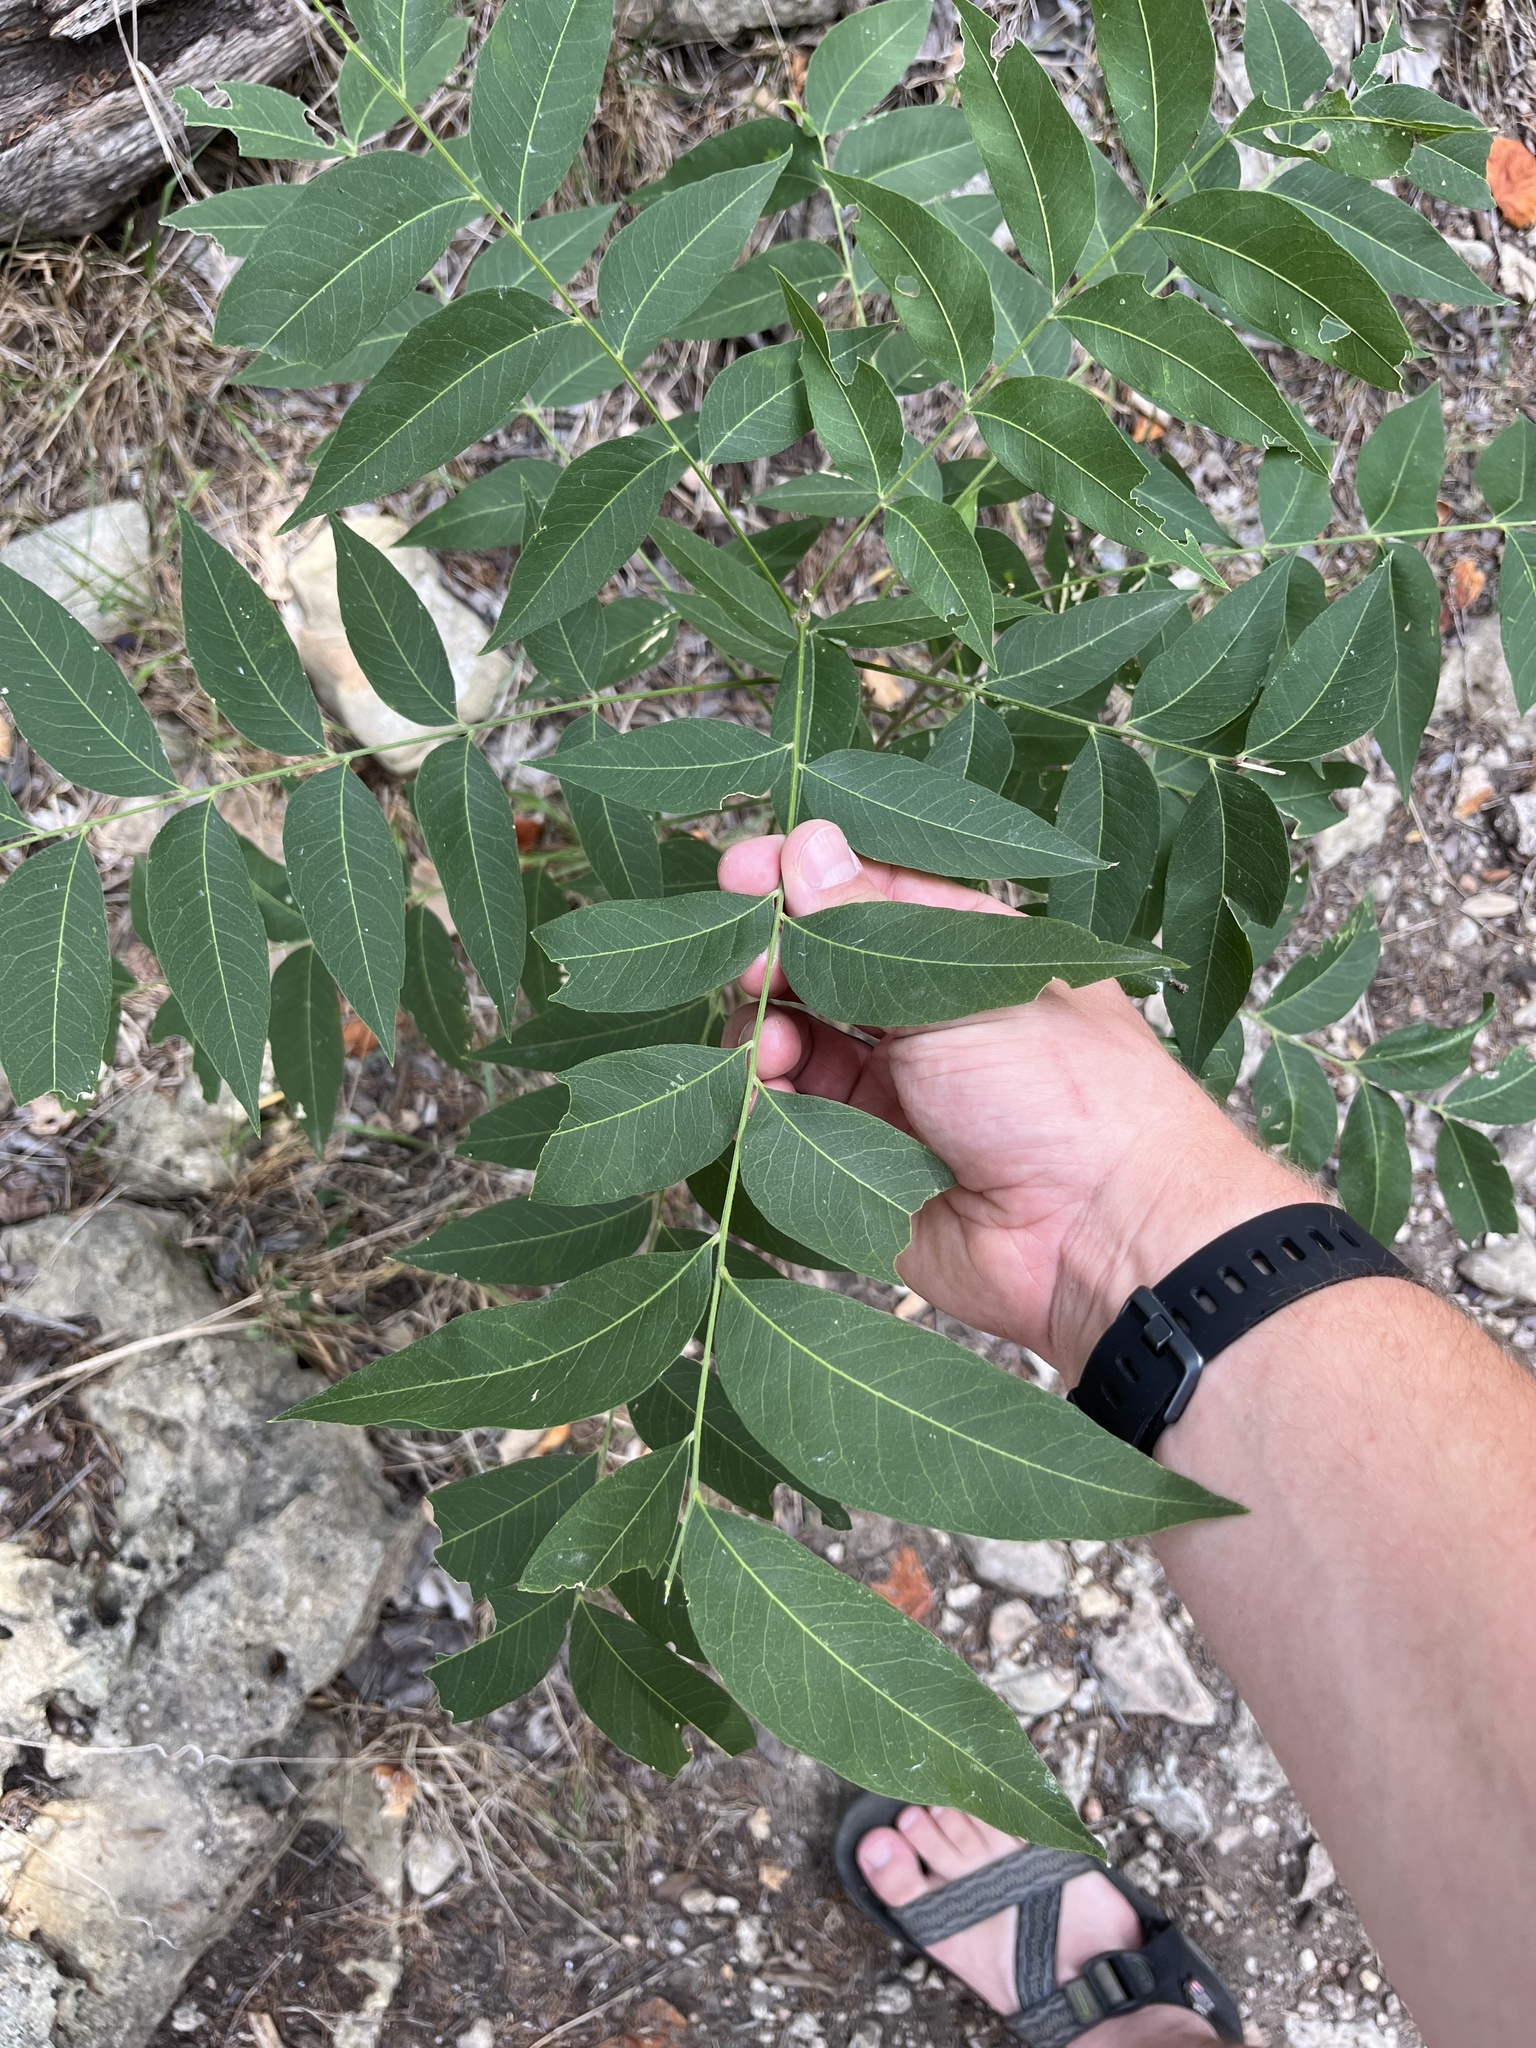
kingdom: Plantae
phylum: Tracheophyta
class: Magnoliopsida
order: Sapindales
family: Sapindaceae
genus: Sapindus
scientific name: Sapindus drummondii
